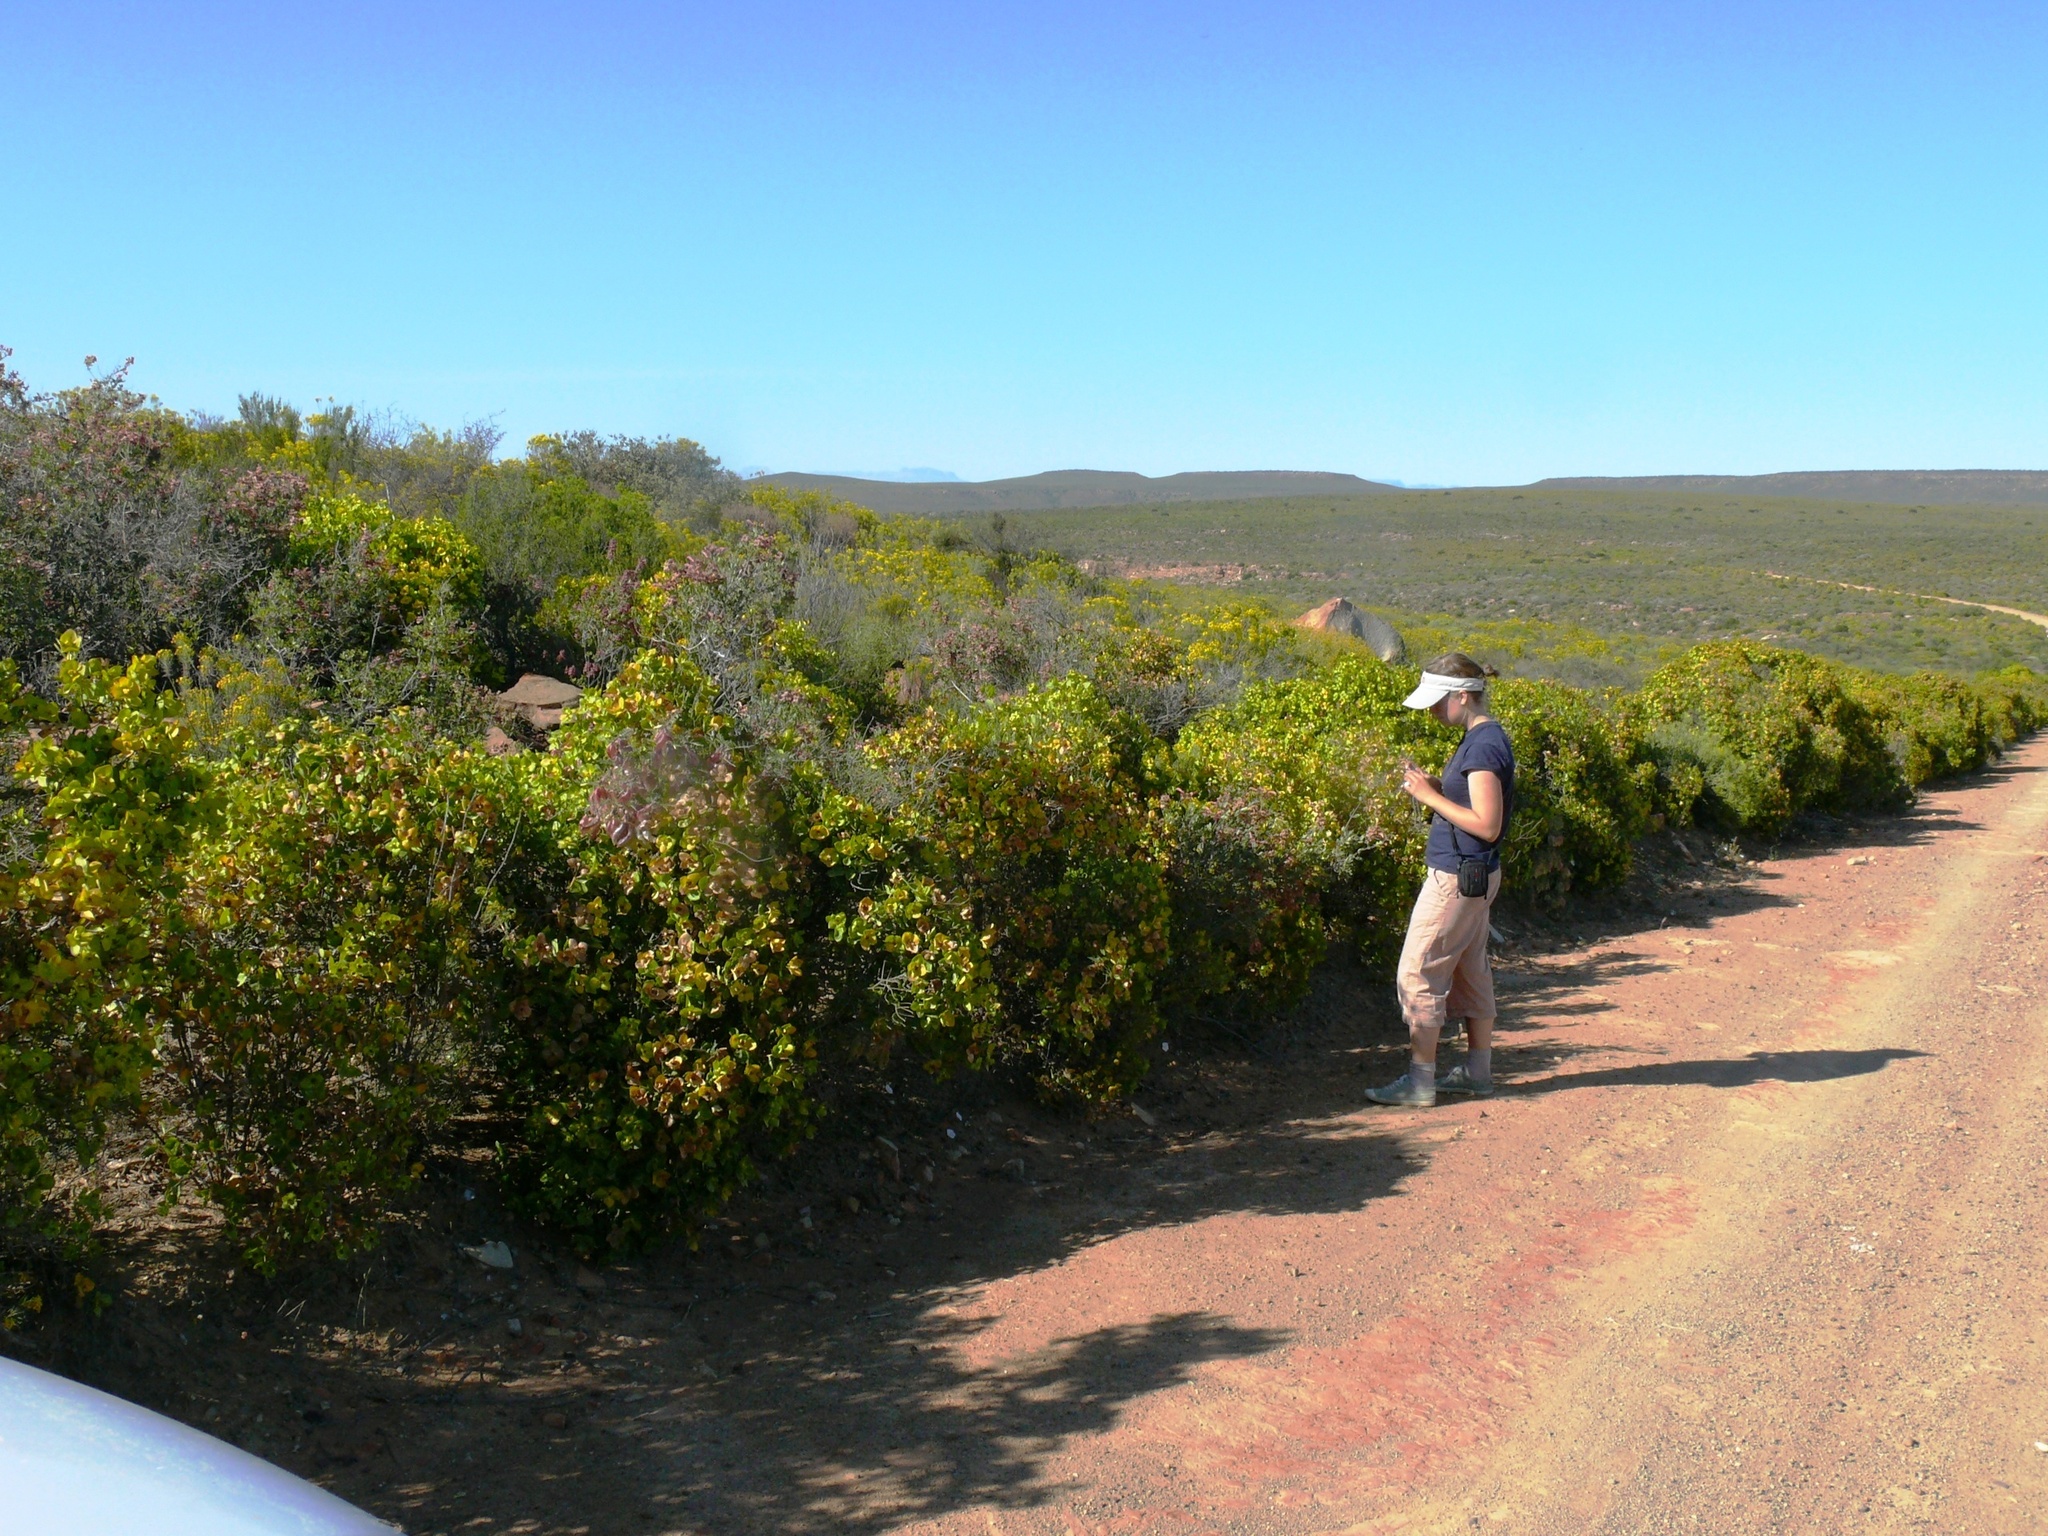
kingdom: Plantae
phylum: Tracheophyta
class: Magnoliopsida
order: Asterales
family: Asteraceae
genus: Didelta
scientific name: Didelta spinosa
